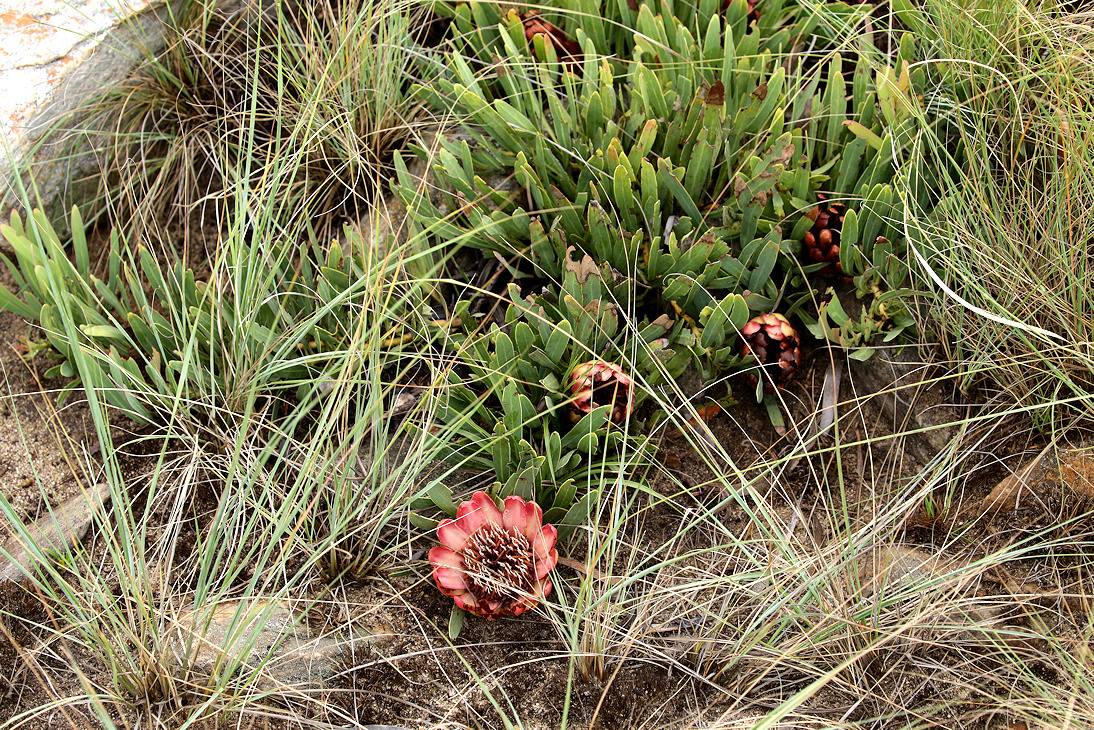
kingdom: Plantae
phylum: Tracheophyta
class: Magnoliopsida
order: Proteales
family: Proteaceae
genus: Protea
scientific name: Protea parvula
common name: Dainty sugarbush
